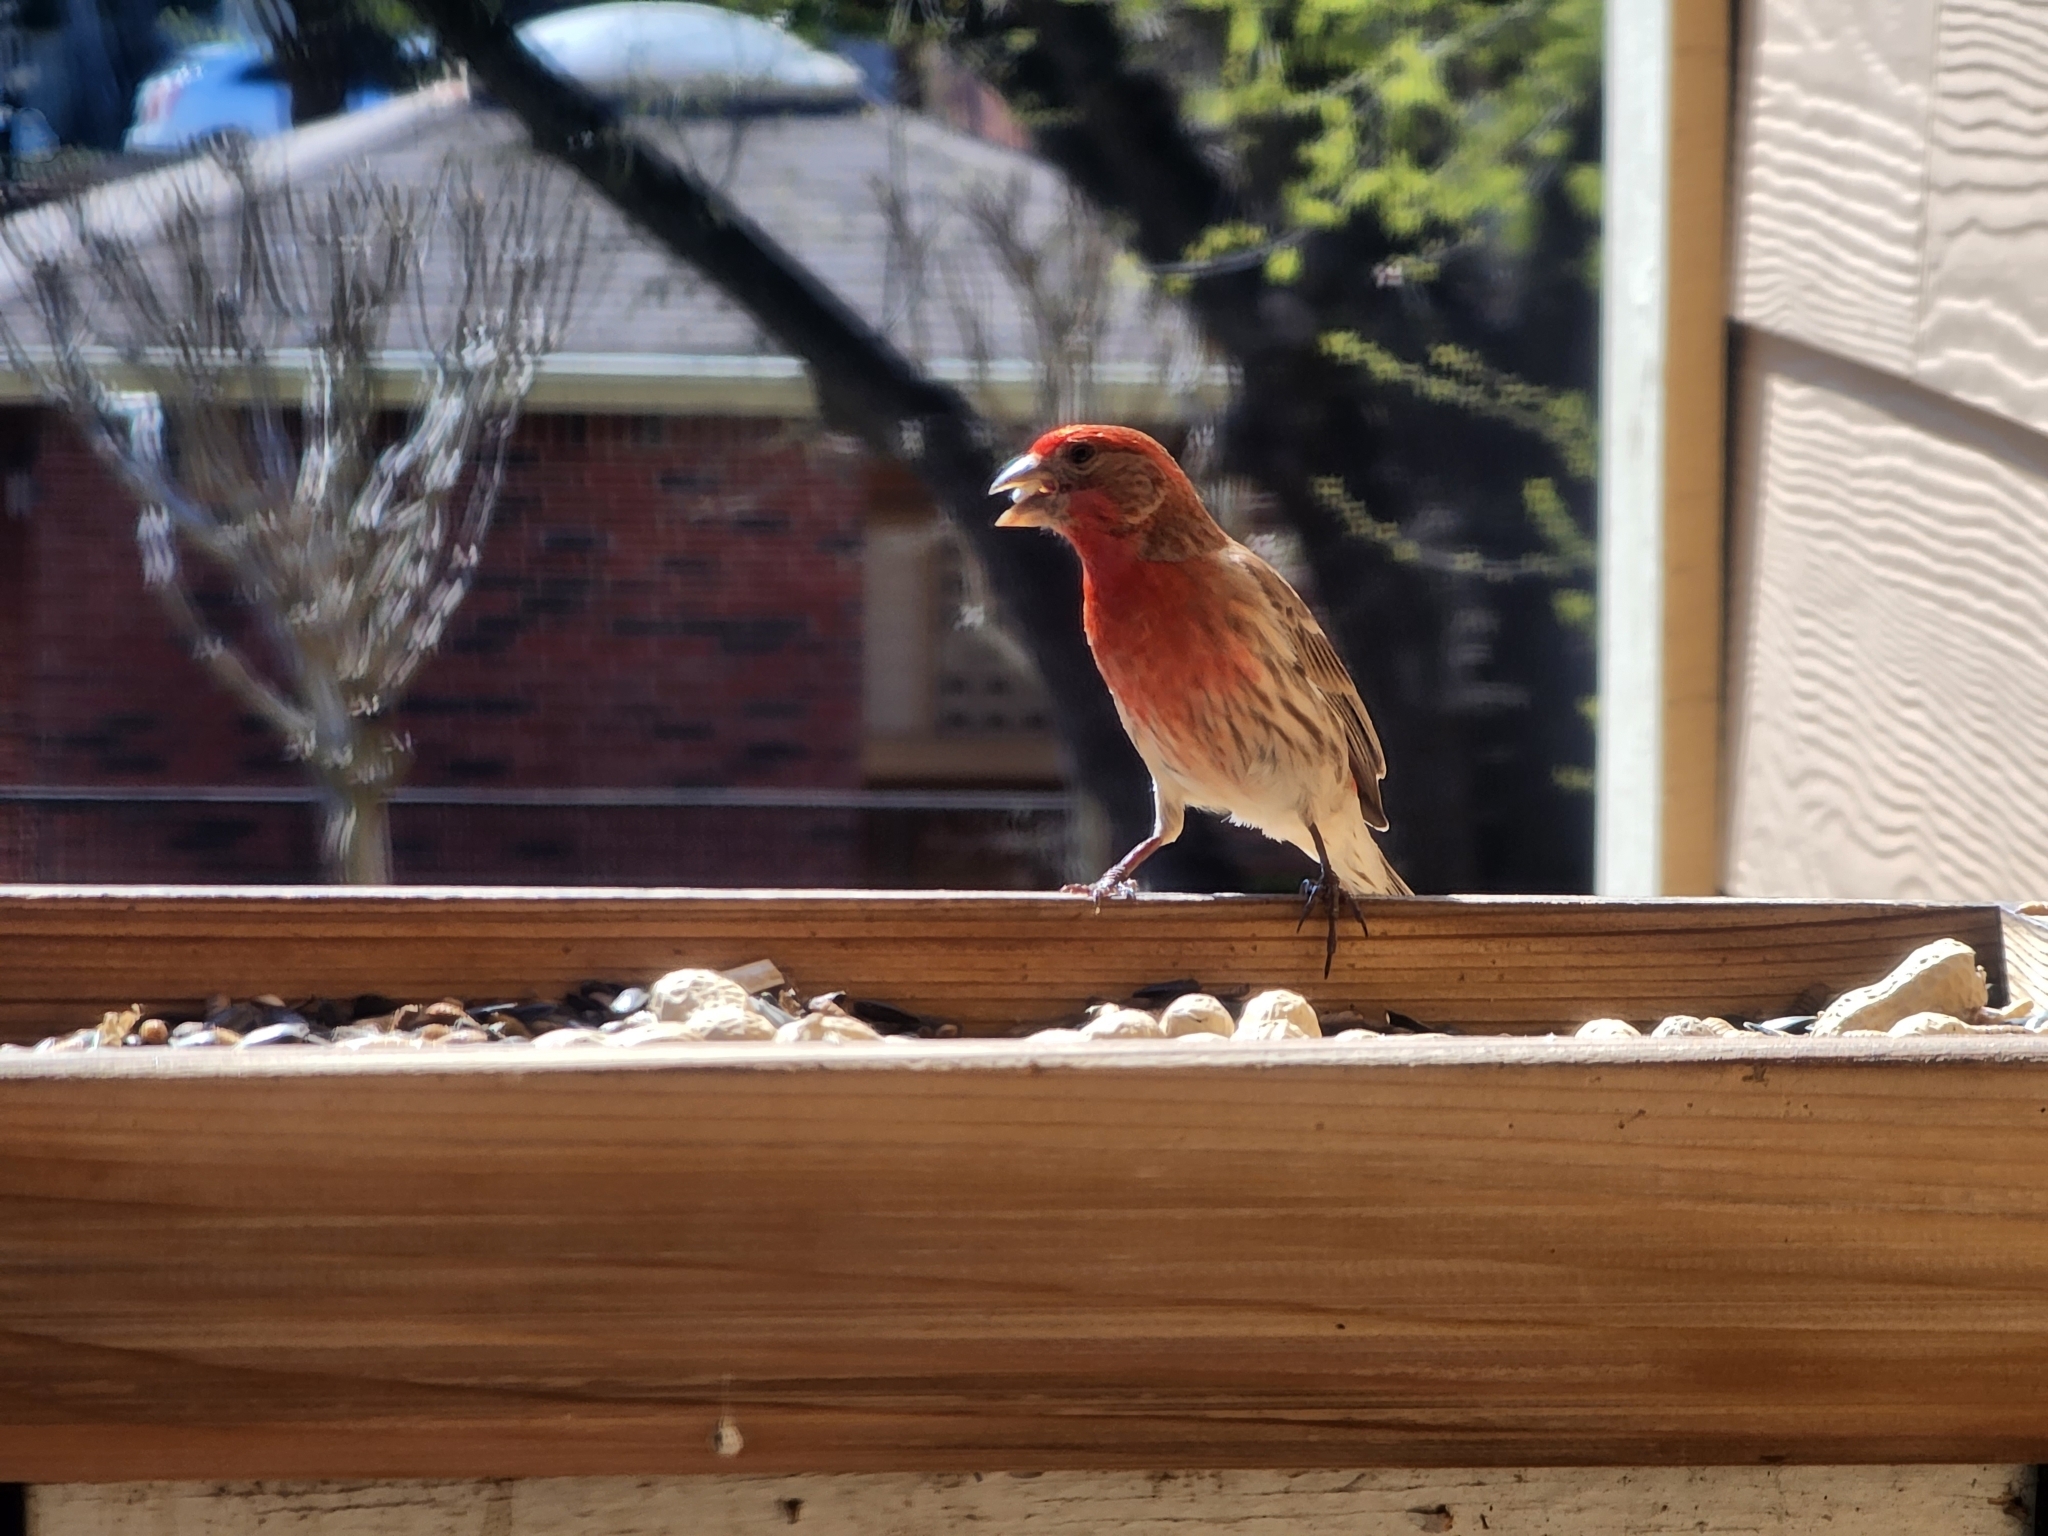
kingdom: Animalia
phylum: Chordata
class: Aves
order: Passeriformes
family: Fringillidae
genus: Haemorhous
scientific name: Haemorhous mexicanus
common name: House finch
